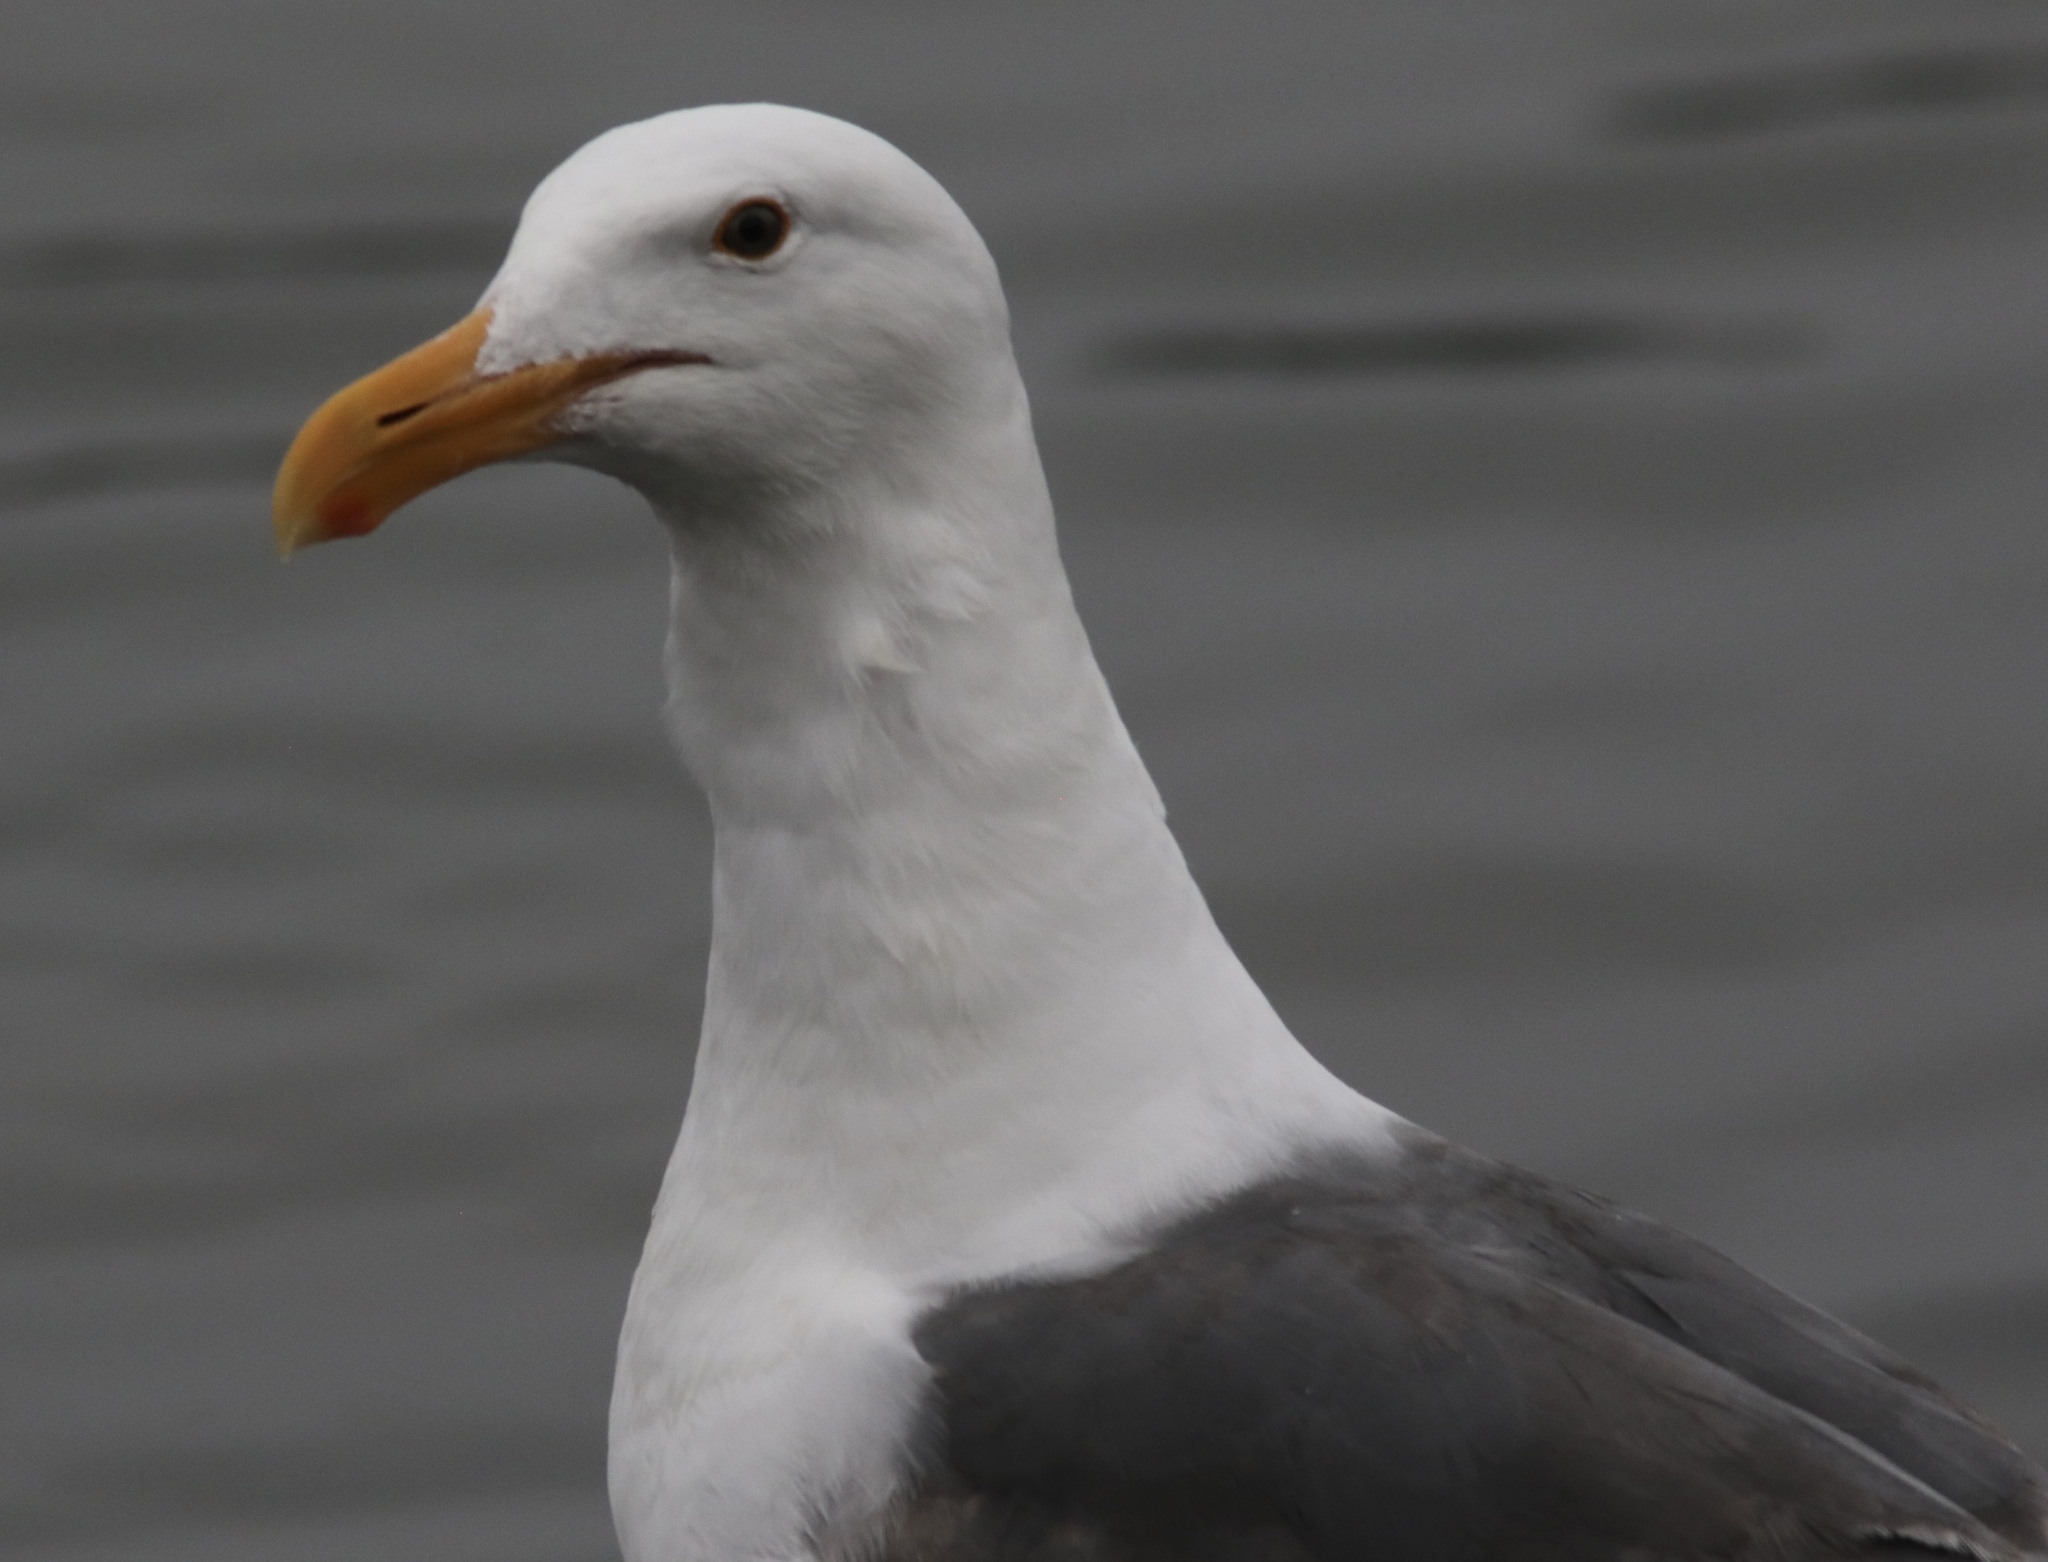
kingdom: Animalia
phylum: Chordata
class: Aves
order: Charadriiformes
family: Laridae
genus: Larus
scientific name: Larus occidentalis
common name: Western gull
